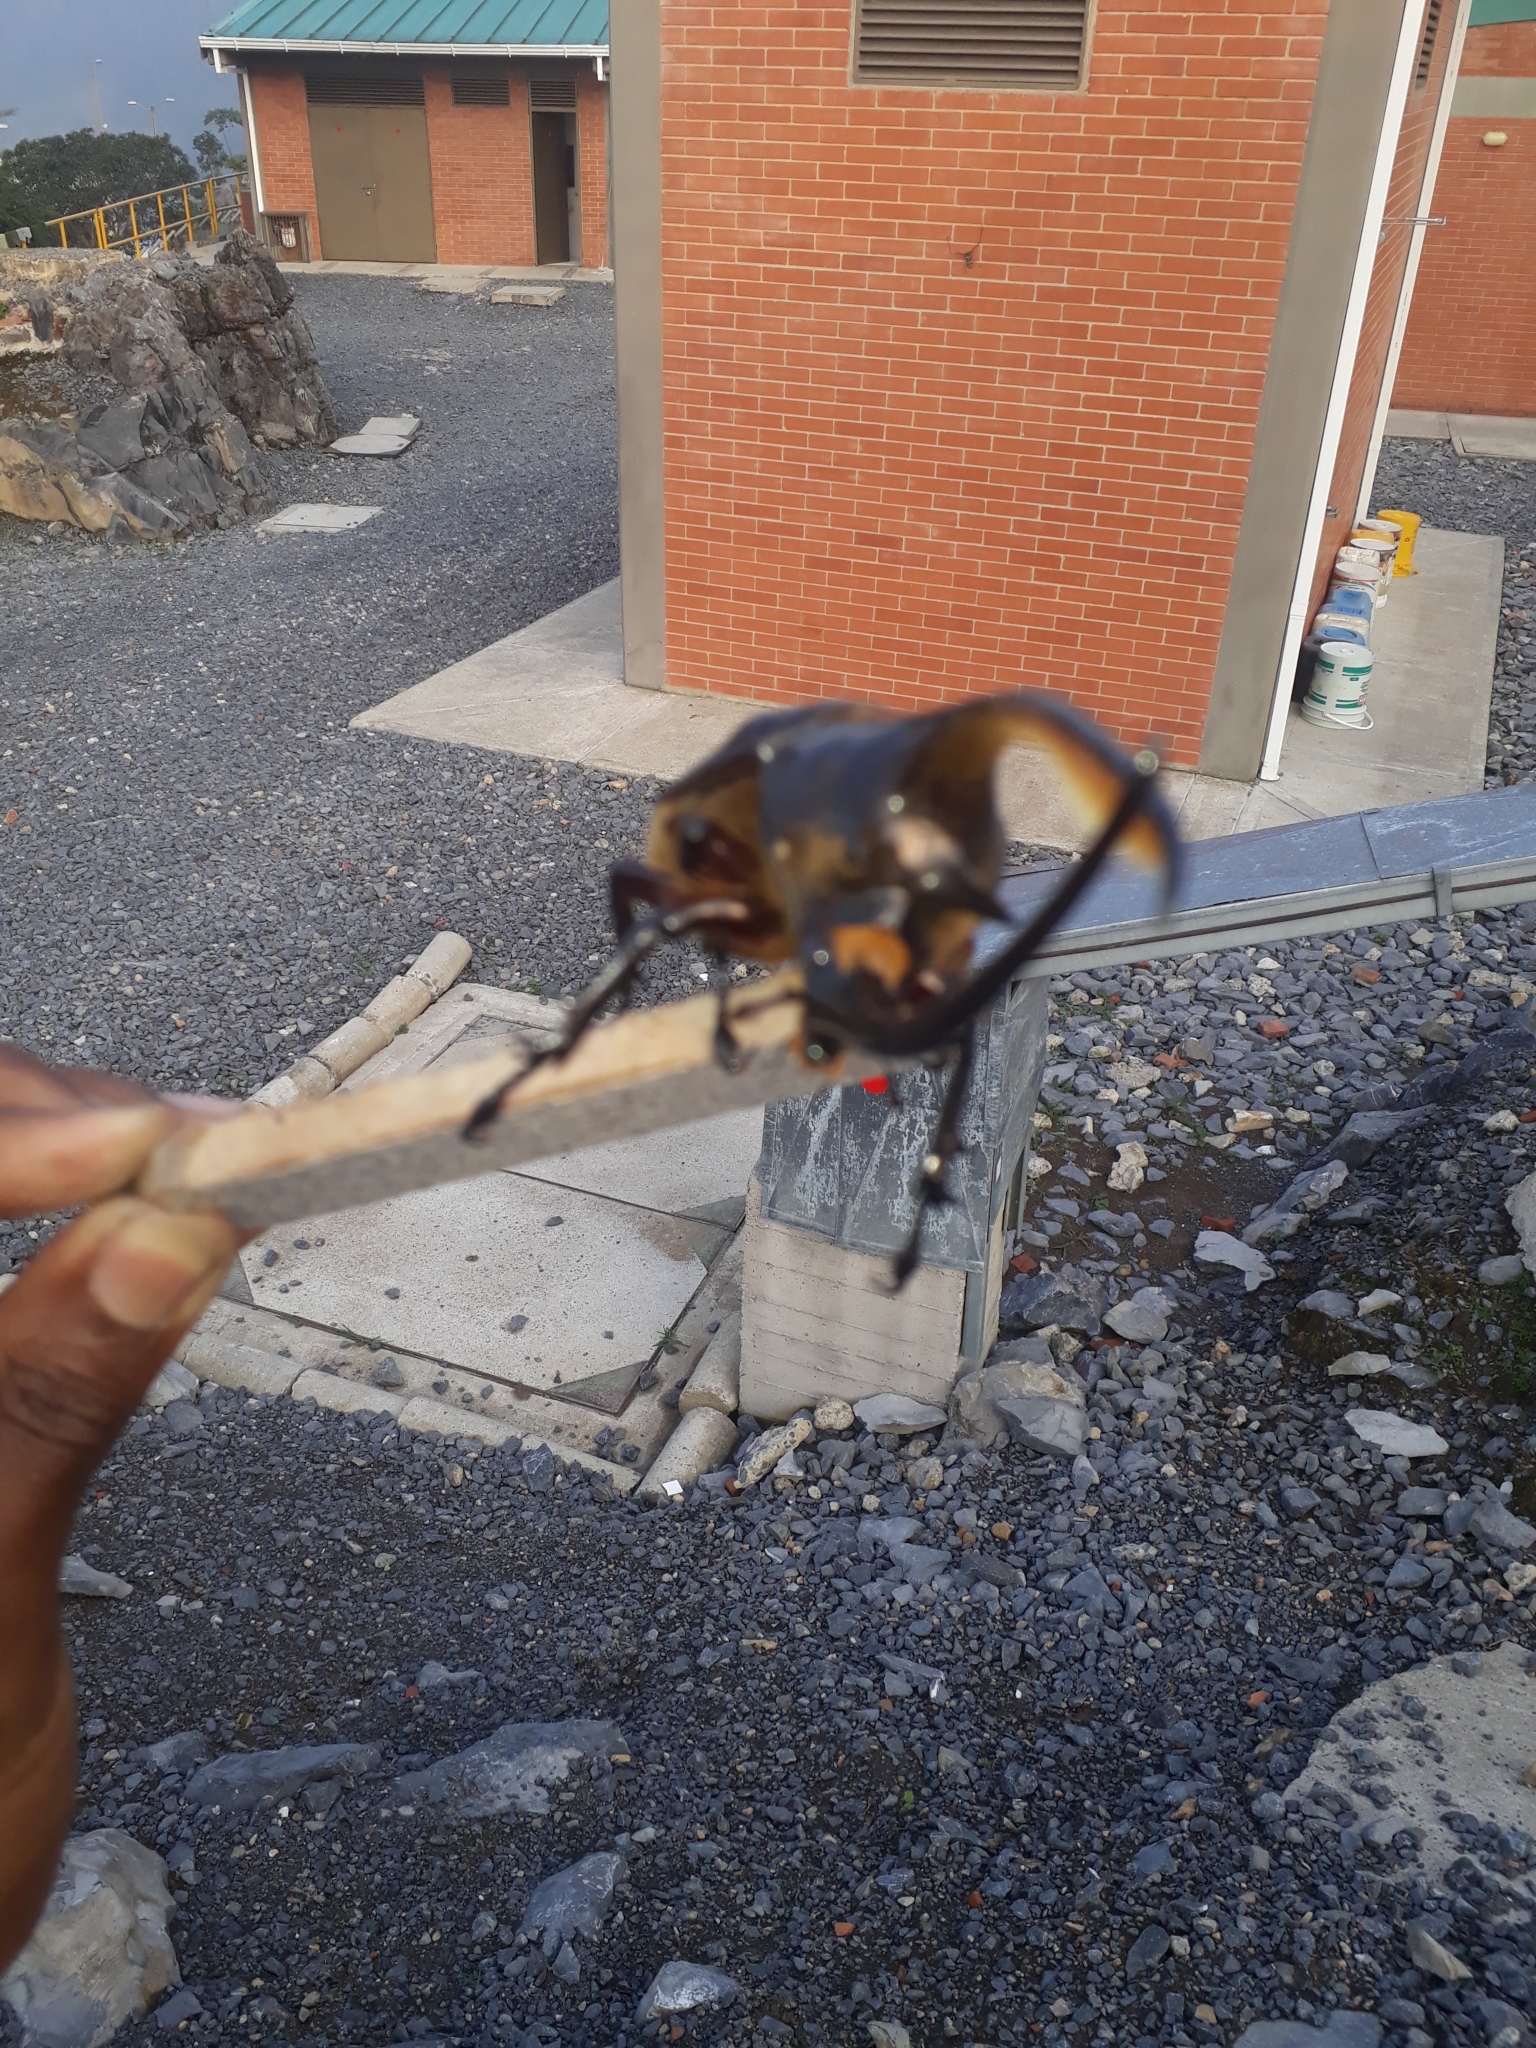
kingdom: Animalia
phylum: Arthropoda
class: Insecta
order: Coleoptera
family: Scarabaeidae
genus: Dynastes
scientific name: Dynastes neptunus
